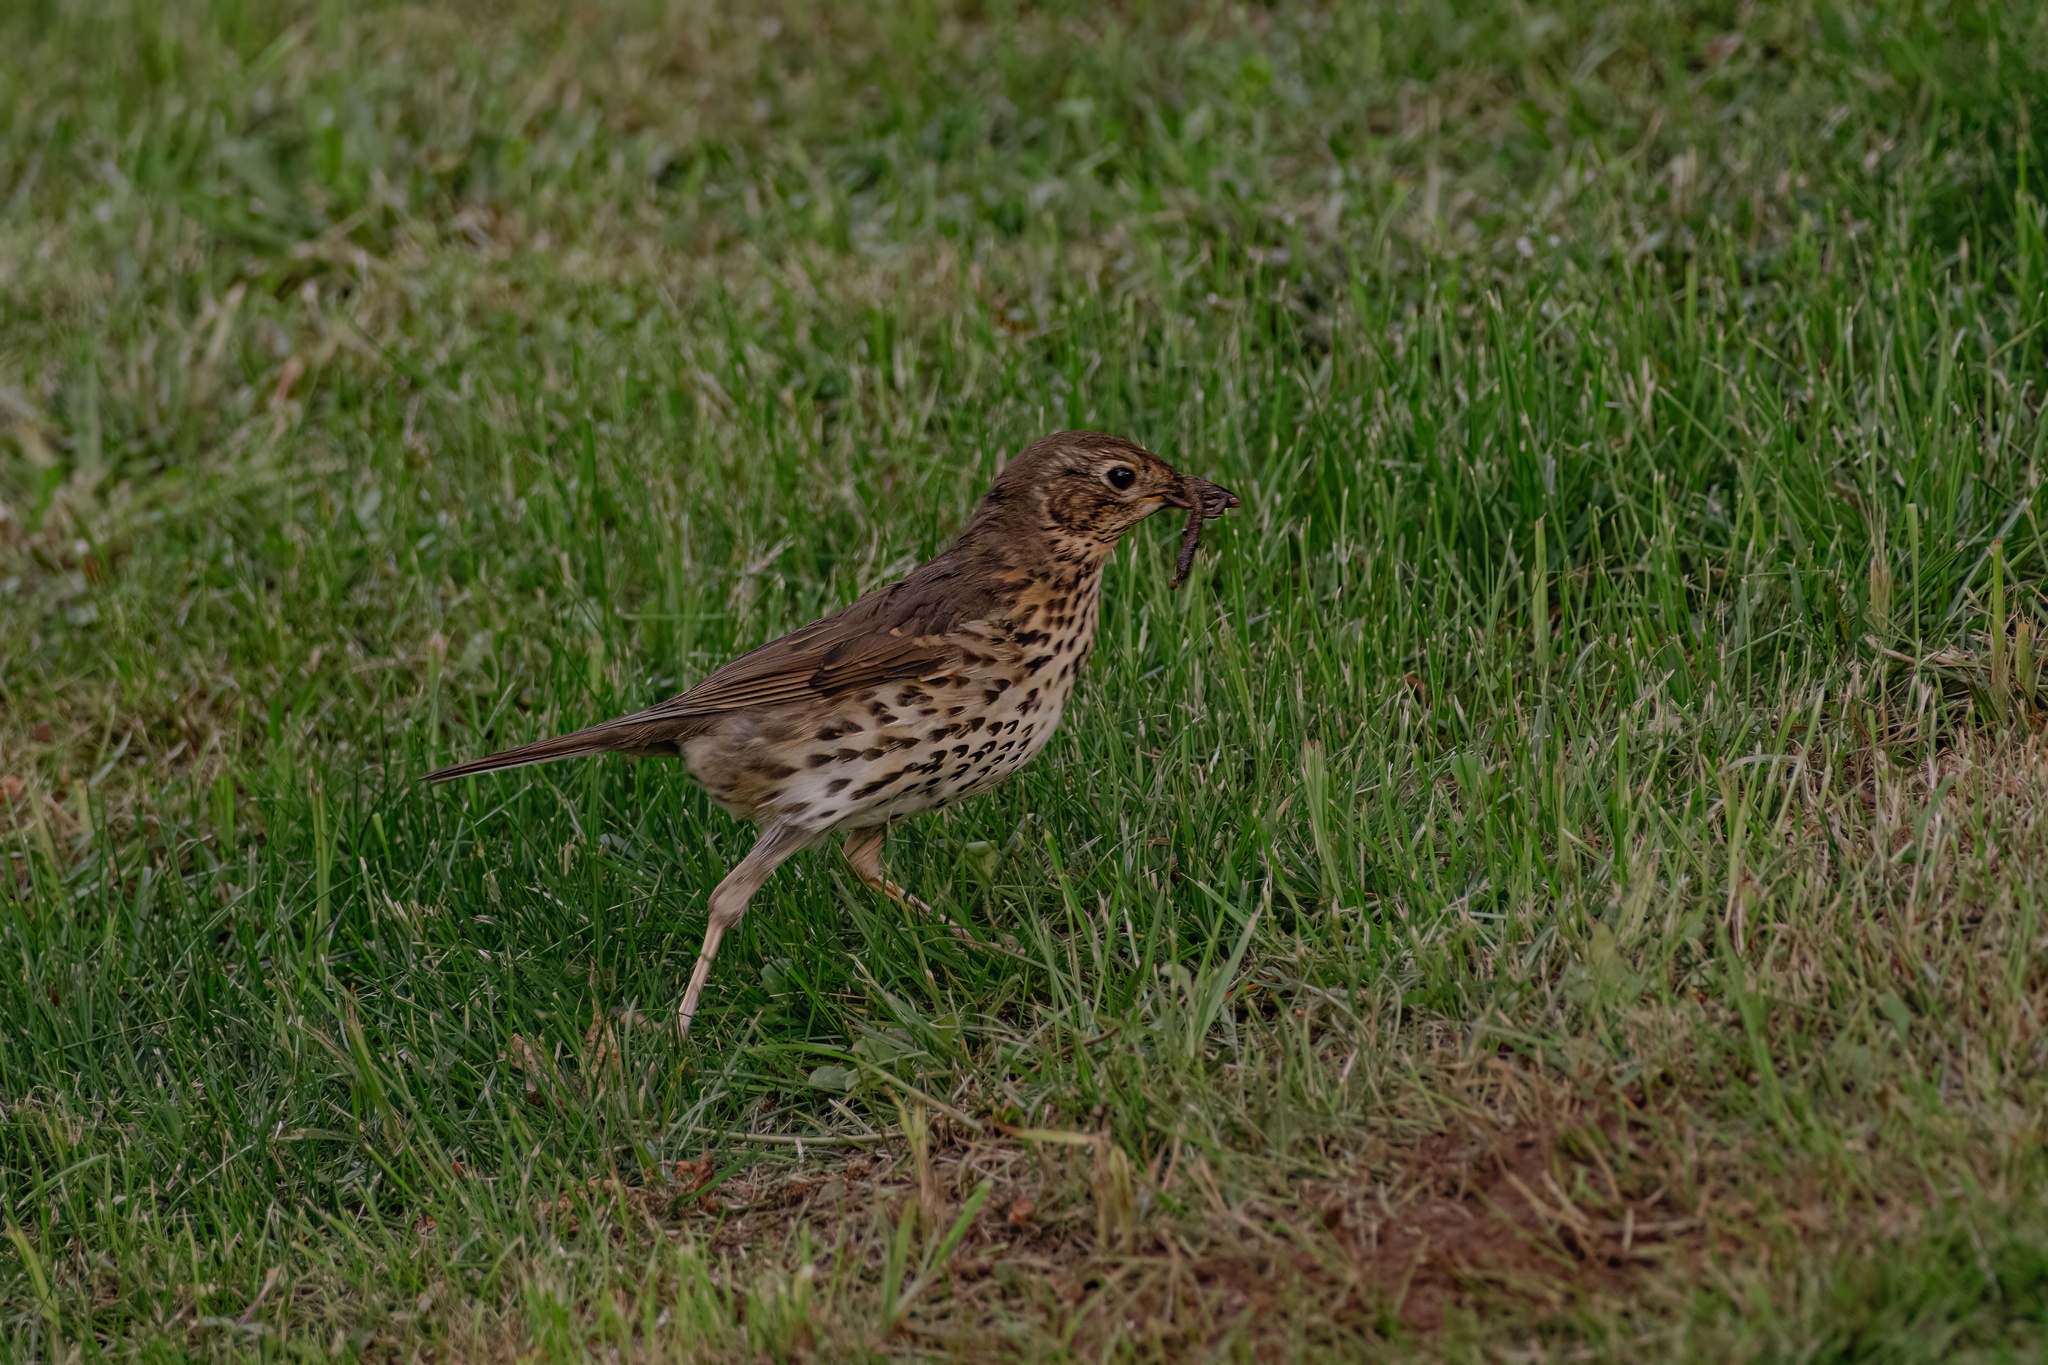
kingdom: Animalia
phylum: Chordata
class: Aves
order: Passeriformes
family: Turdidae
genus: Turdus
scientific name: Turdus philomelos
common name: Song thrush
